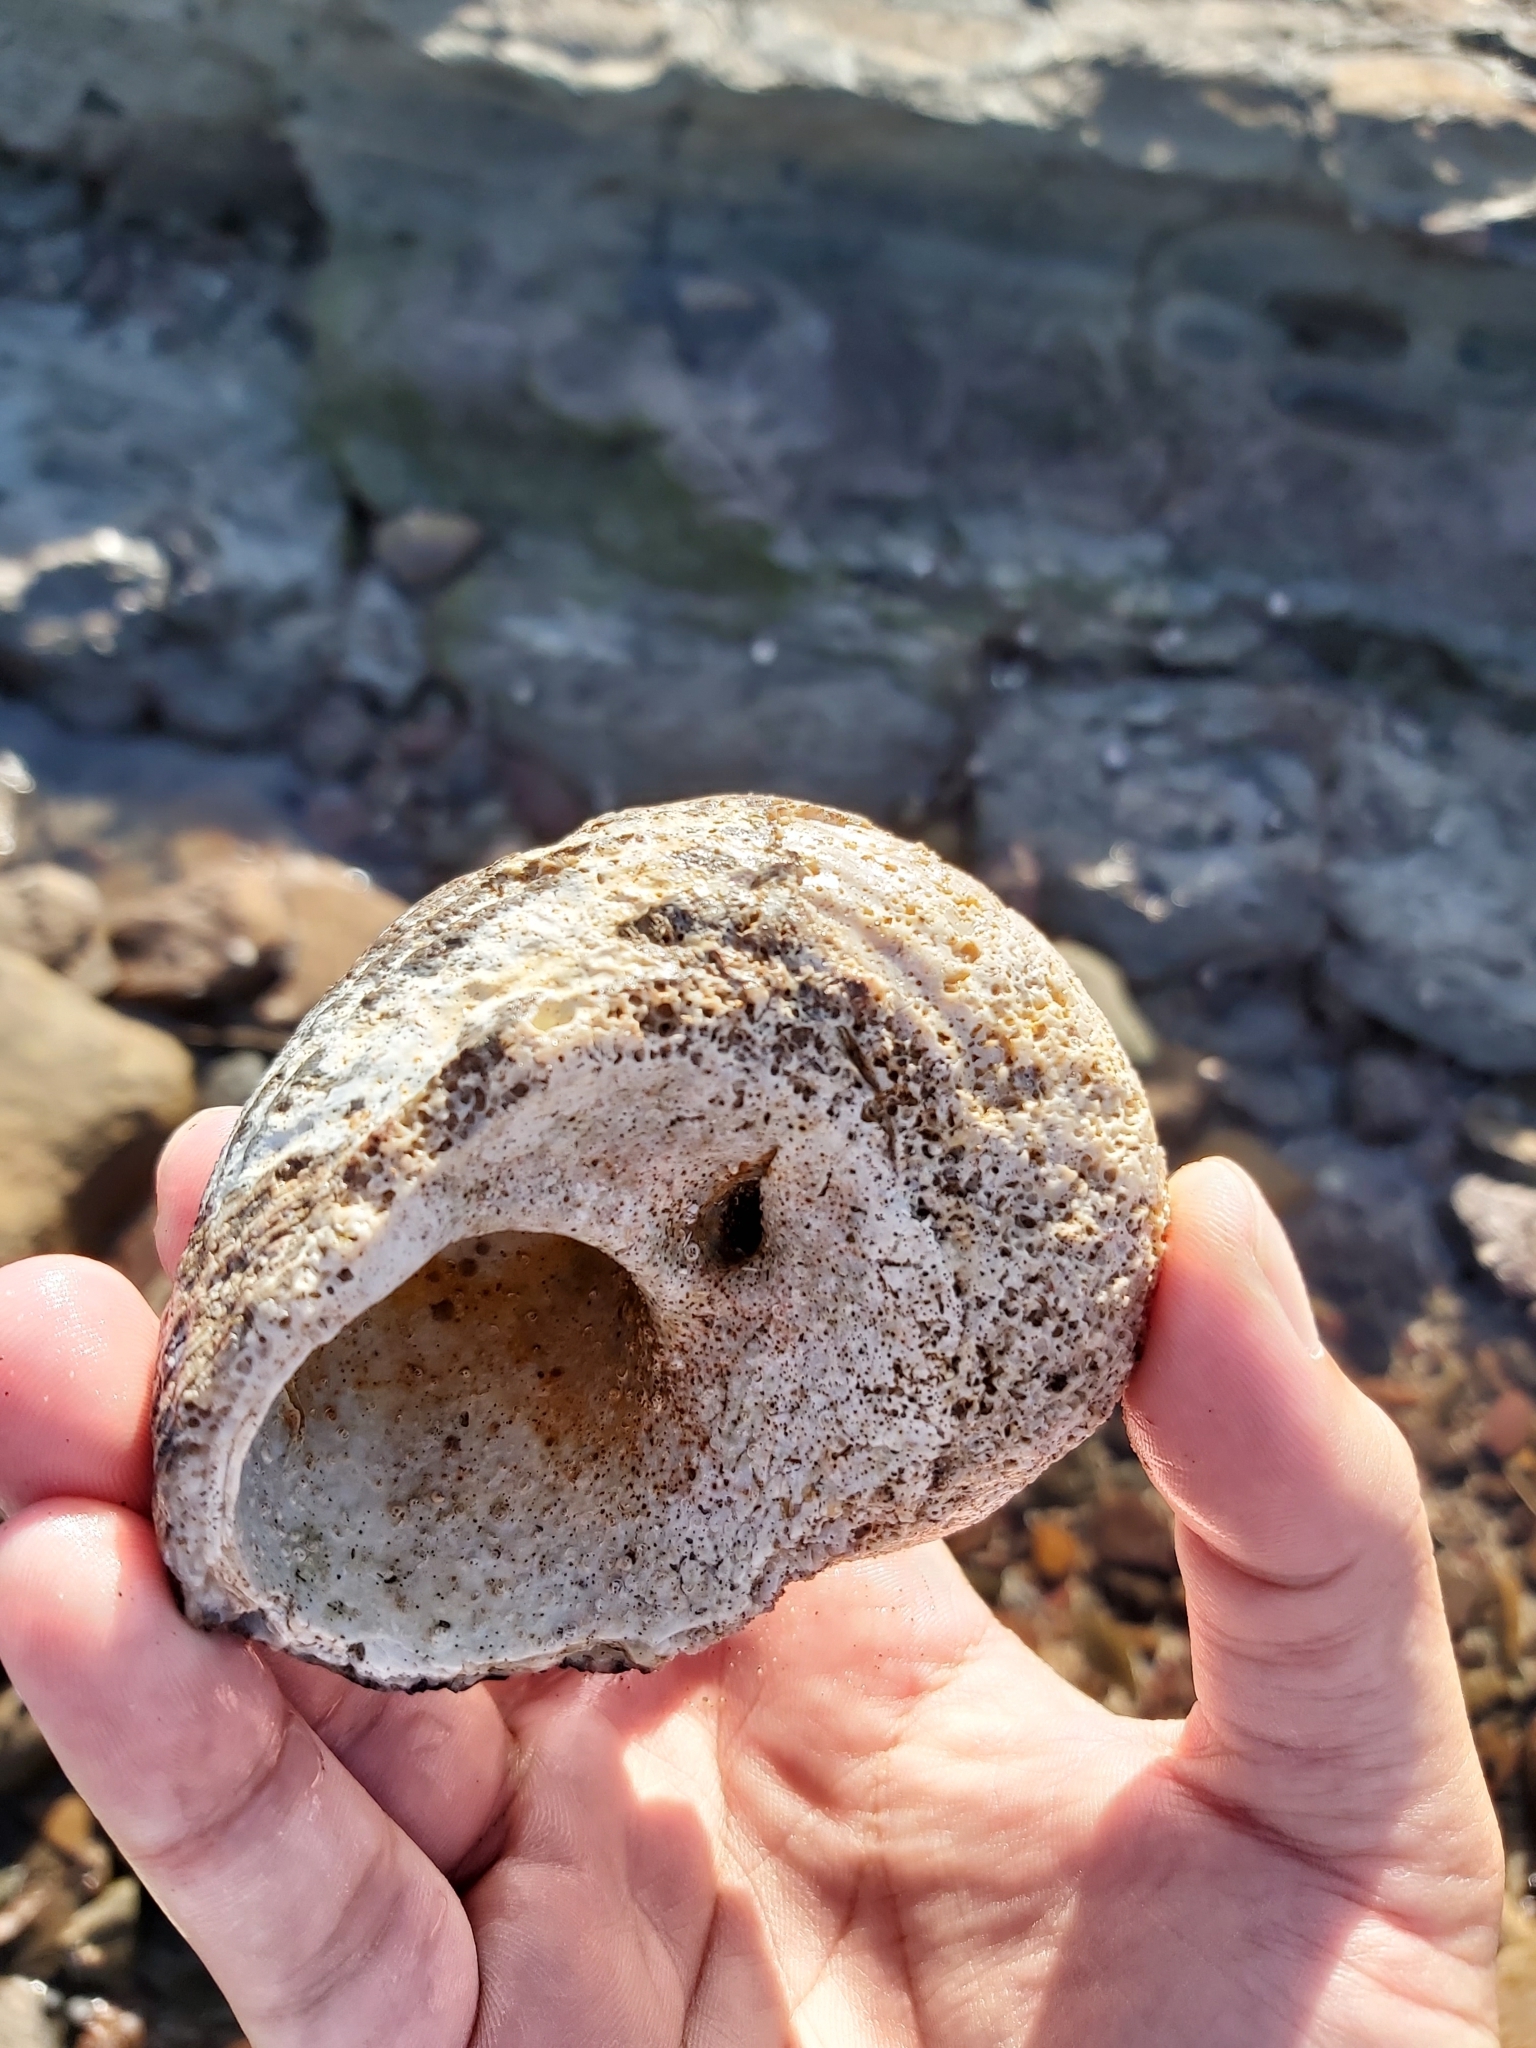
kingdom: Animalia
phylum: Mollusca
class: Gastropoda
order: Trochida
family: Turbinidae
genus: Lunella
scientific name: Lunella torquata
